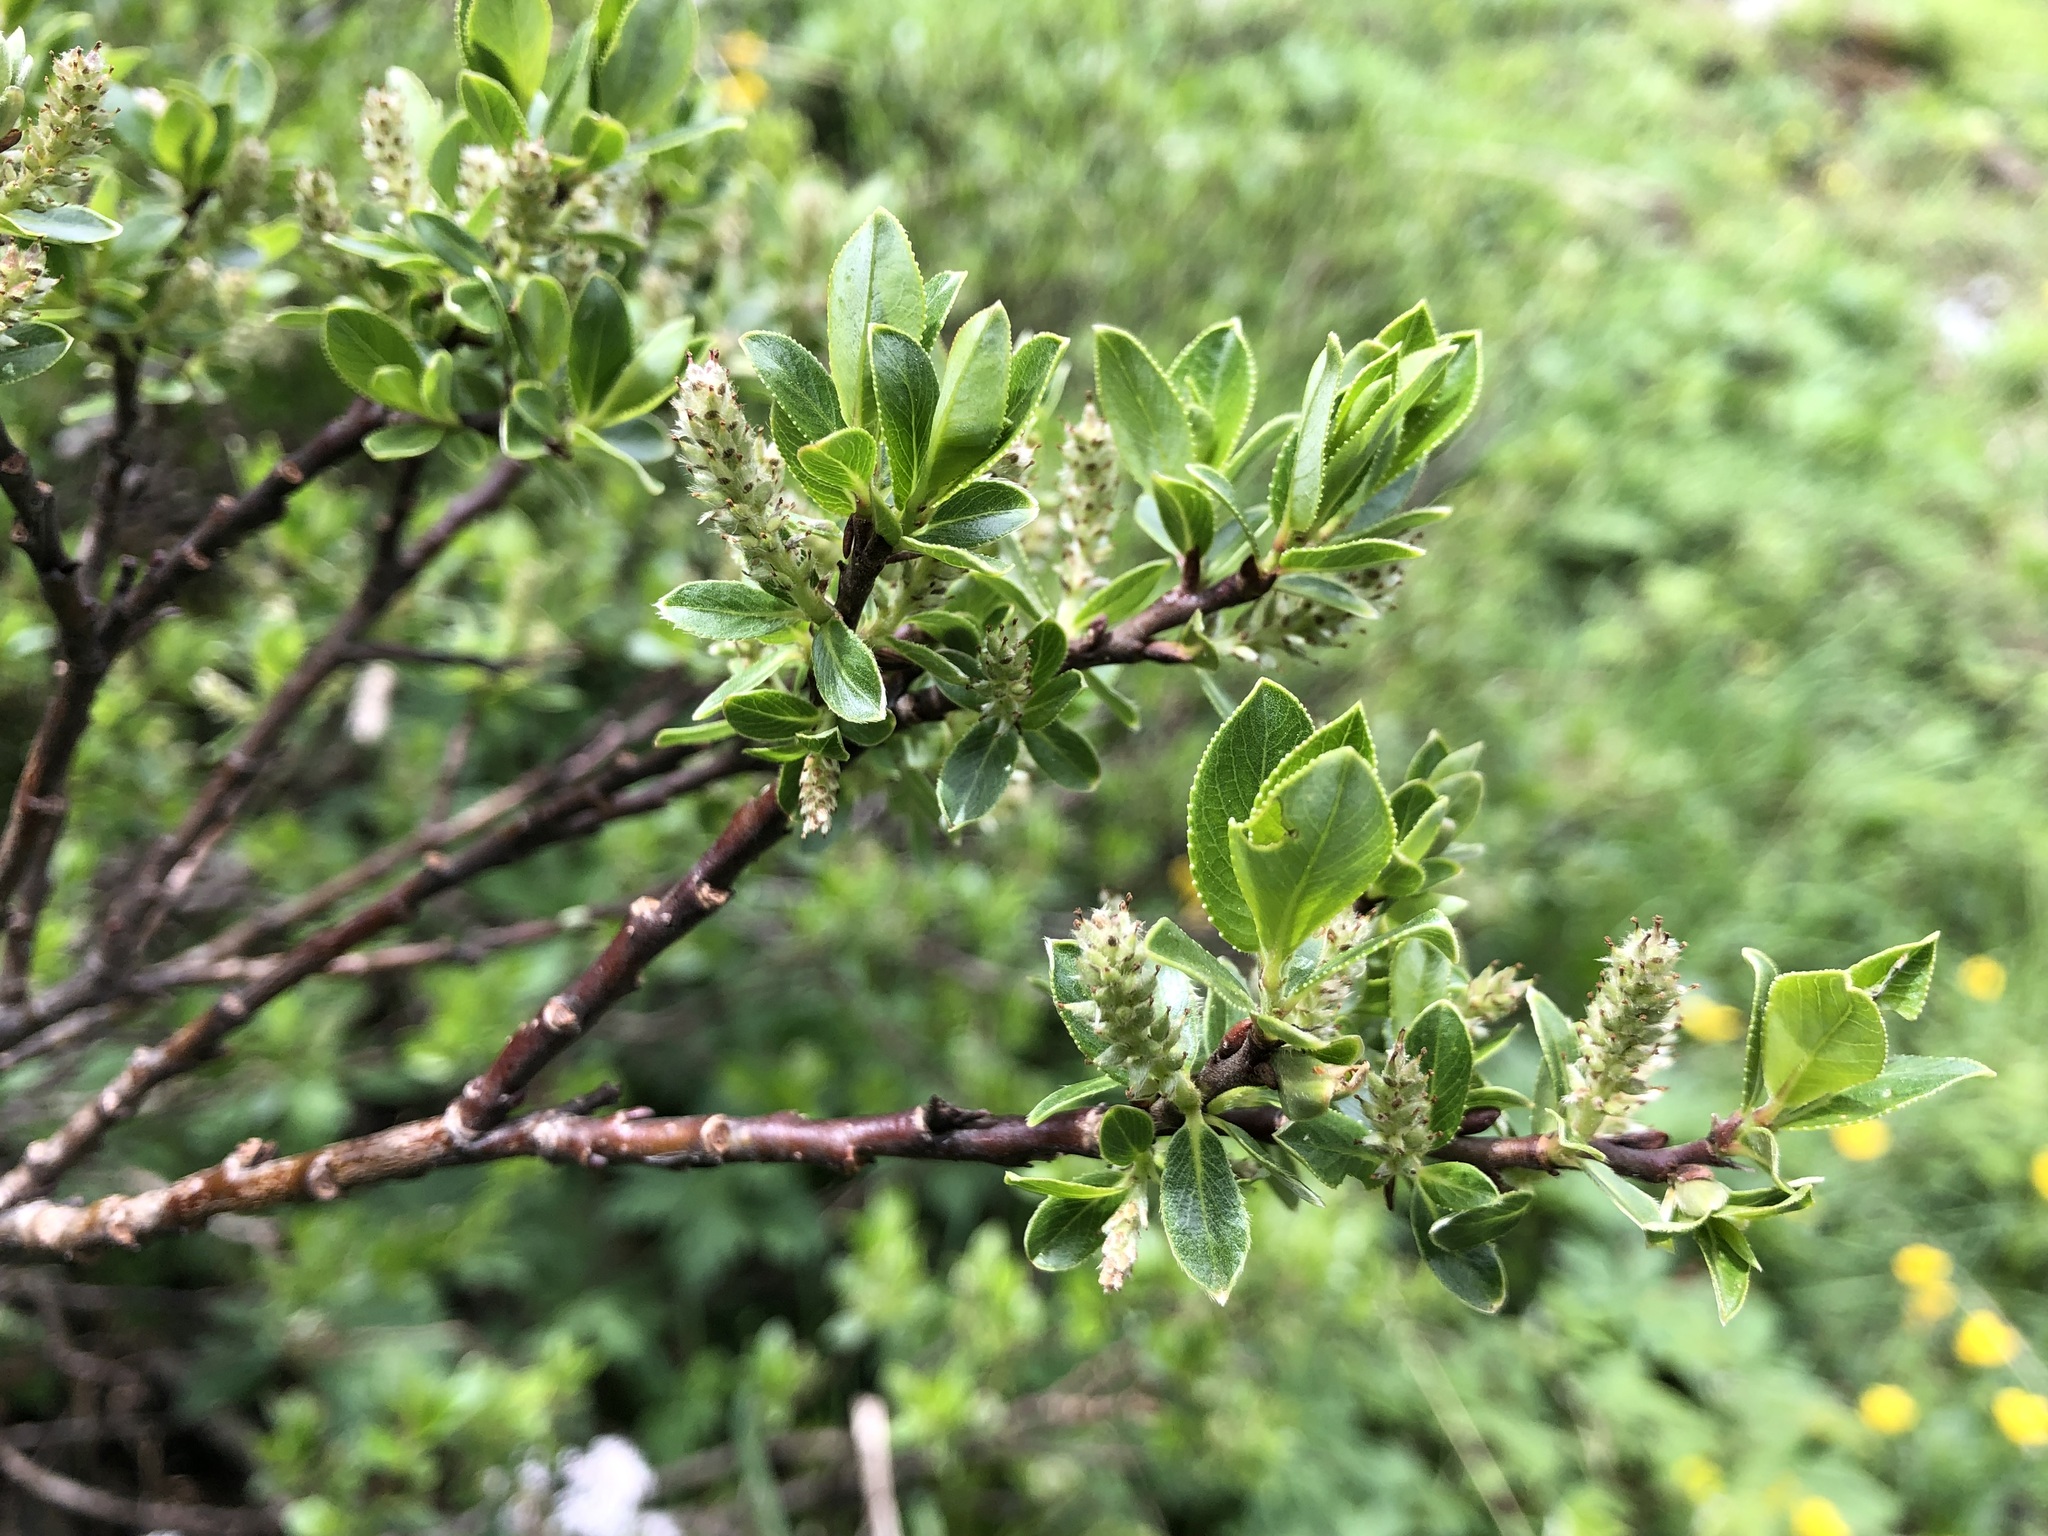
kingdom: Plantae
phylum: Tracheophyta
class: Magnoliopsida
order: Malpighiales
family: Salicaceae
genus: Salix
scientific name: Salix foetida
